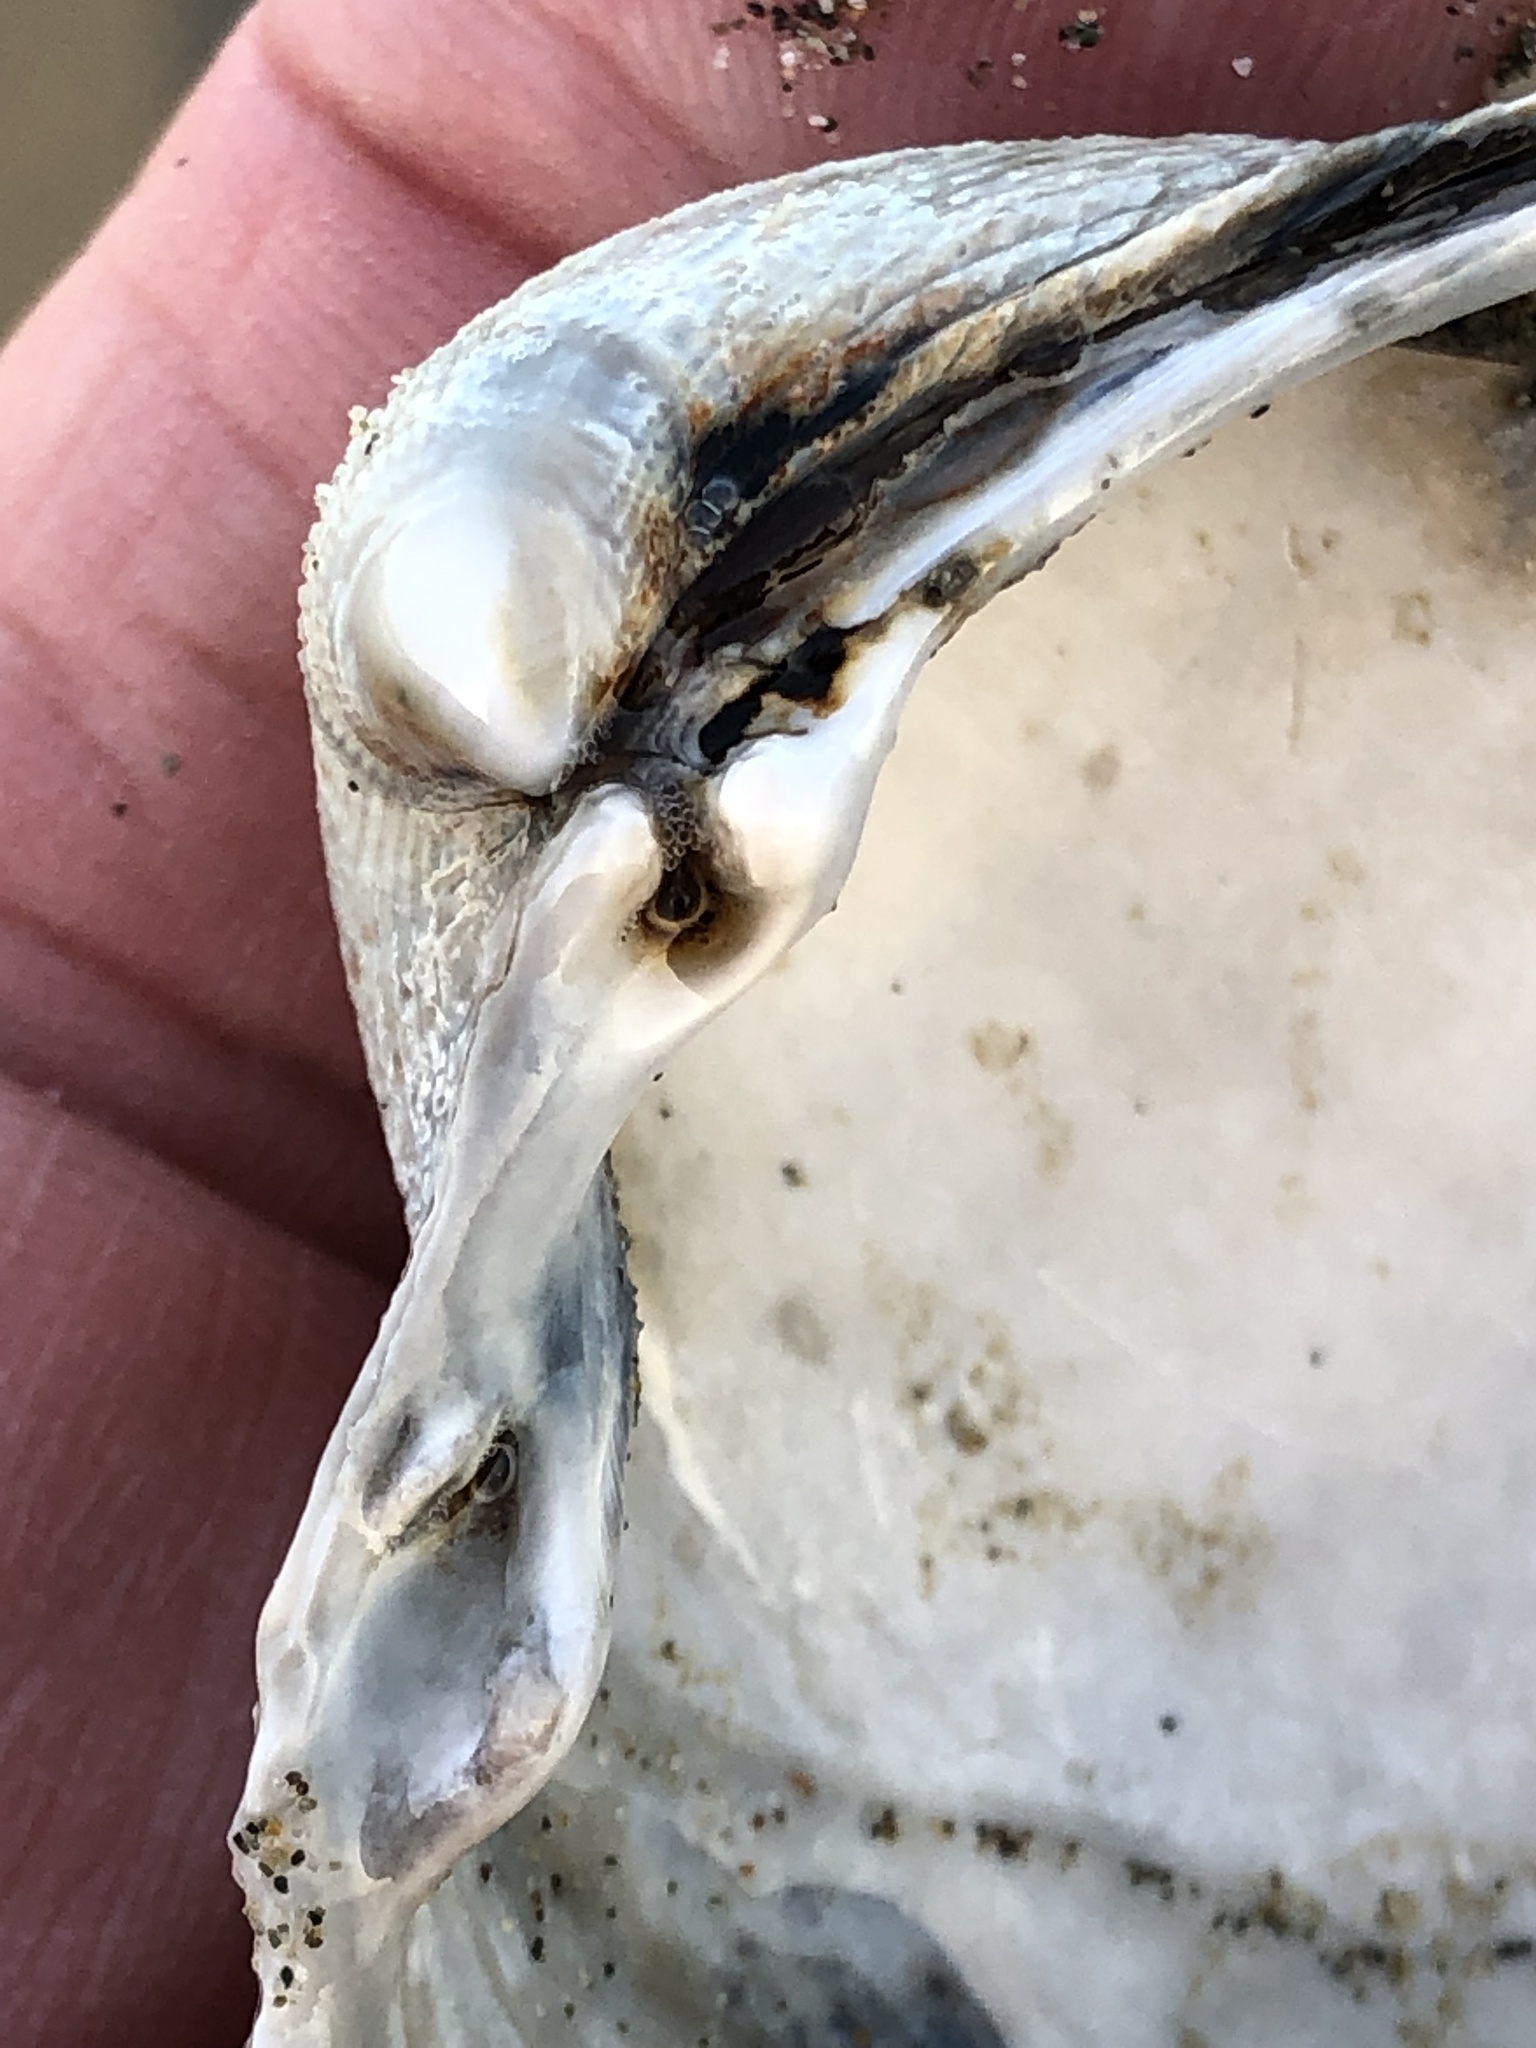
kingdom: Animalia
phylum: Mollusca
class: Bivalvia
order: Cardiida
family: Cardiidae
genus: Clinocardium
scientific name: Clinocardium nuttallii
